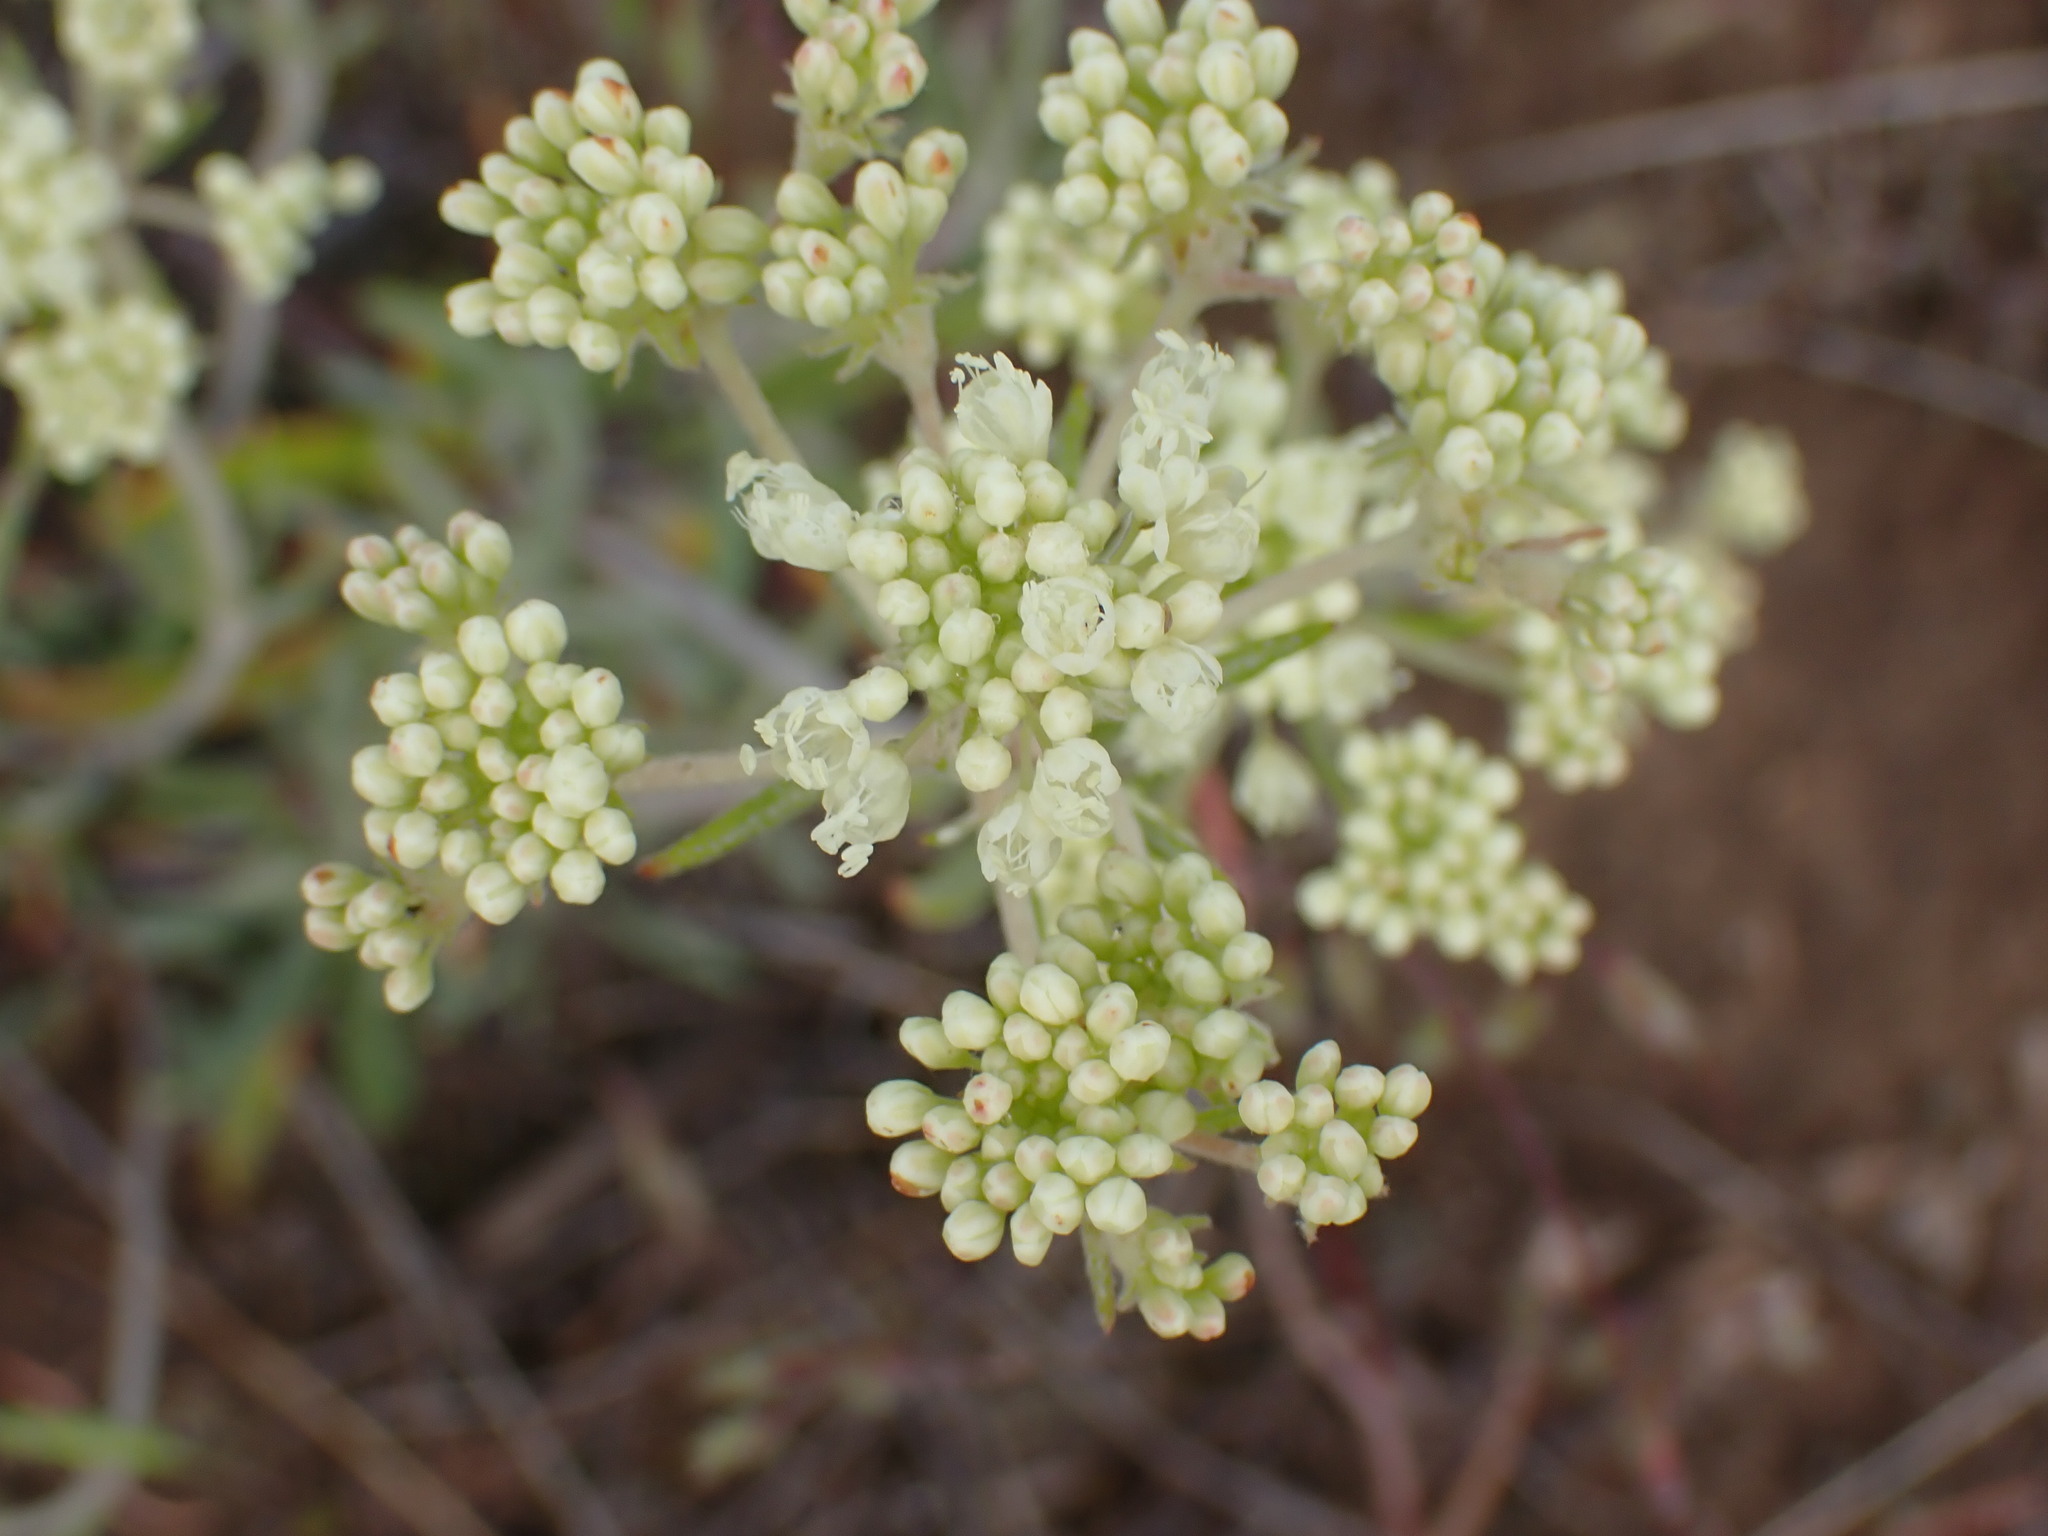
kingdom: Plantae
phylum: Tracheophyta
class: Magnoliopsida
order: Caryophyllales
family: Polygonaceae
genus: Eriogonum
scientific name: Eriogonum heracleoides
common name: Wyeth's buckwheat
